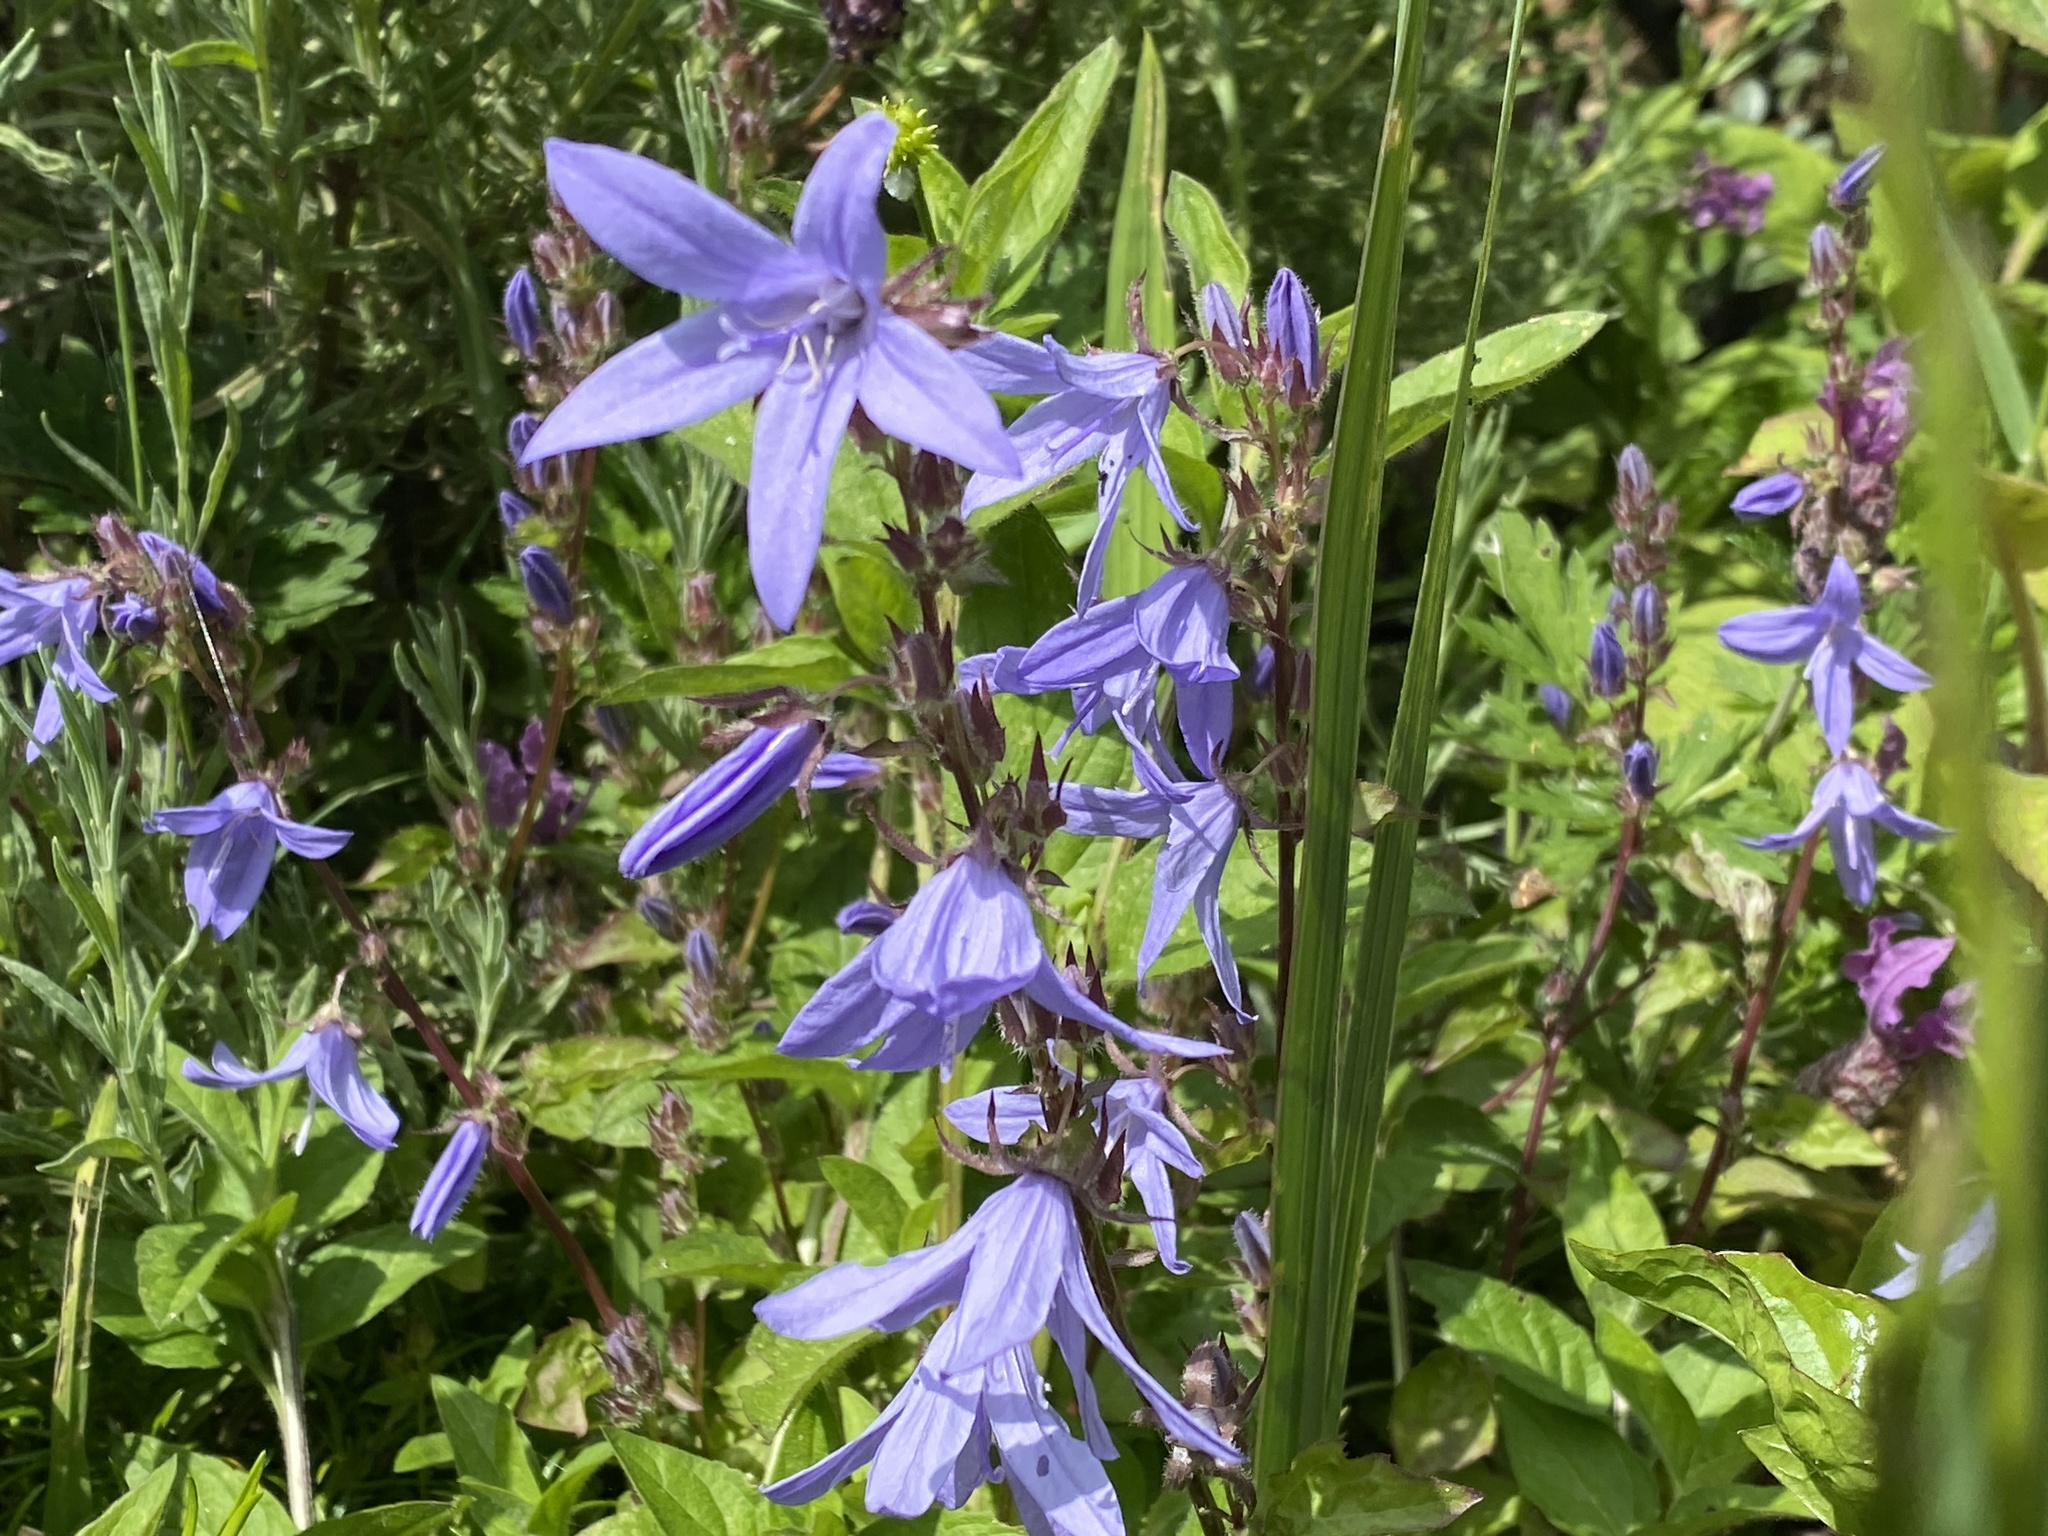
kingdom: Plantae
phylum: Tracheophyta
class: Magnoliopsida
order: Asterales
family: Campanulaceae
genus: Campanula
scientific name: Campanula poscharskyana
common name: Trailing bellflower
